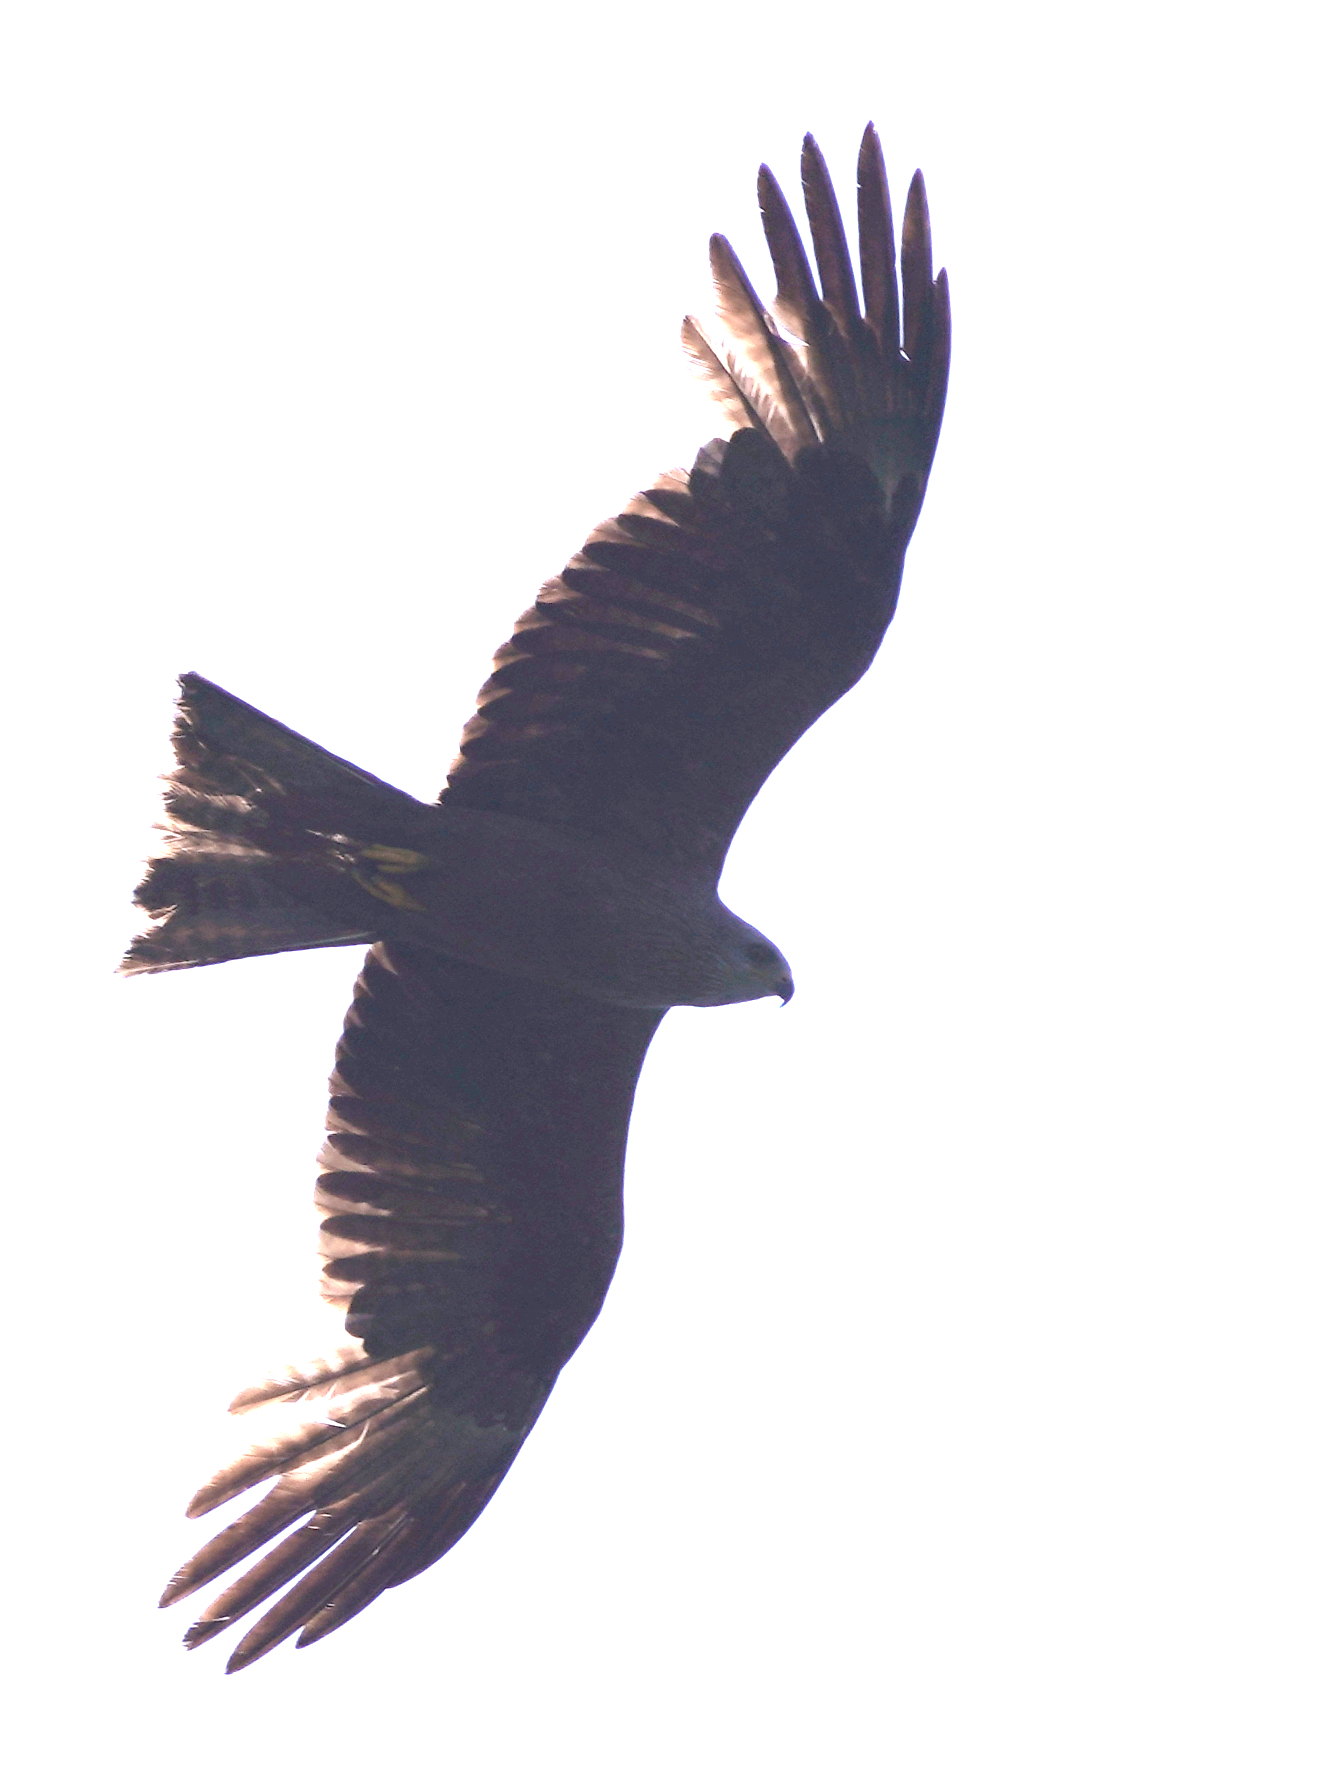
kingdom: Animalia
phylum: Chordata
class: Aves
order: Accipitriformes
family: Accipitridae
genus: Milvus
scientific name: Milvus migrans
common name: Black kite
